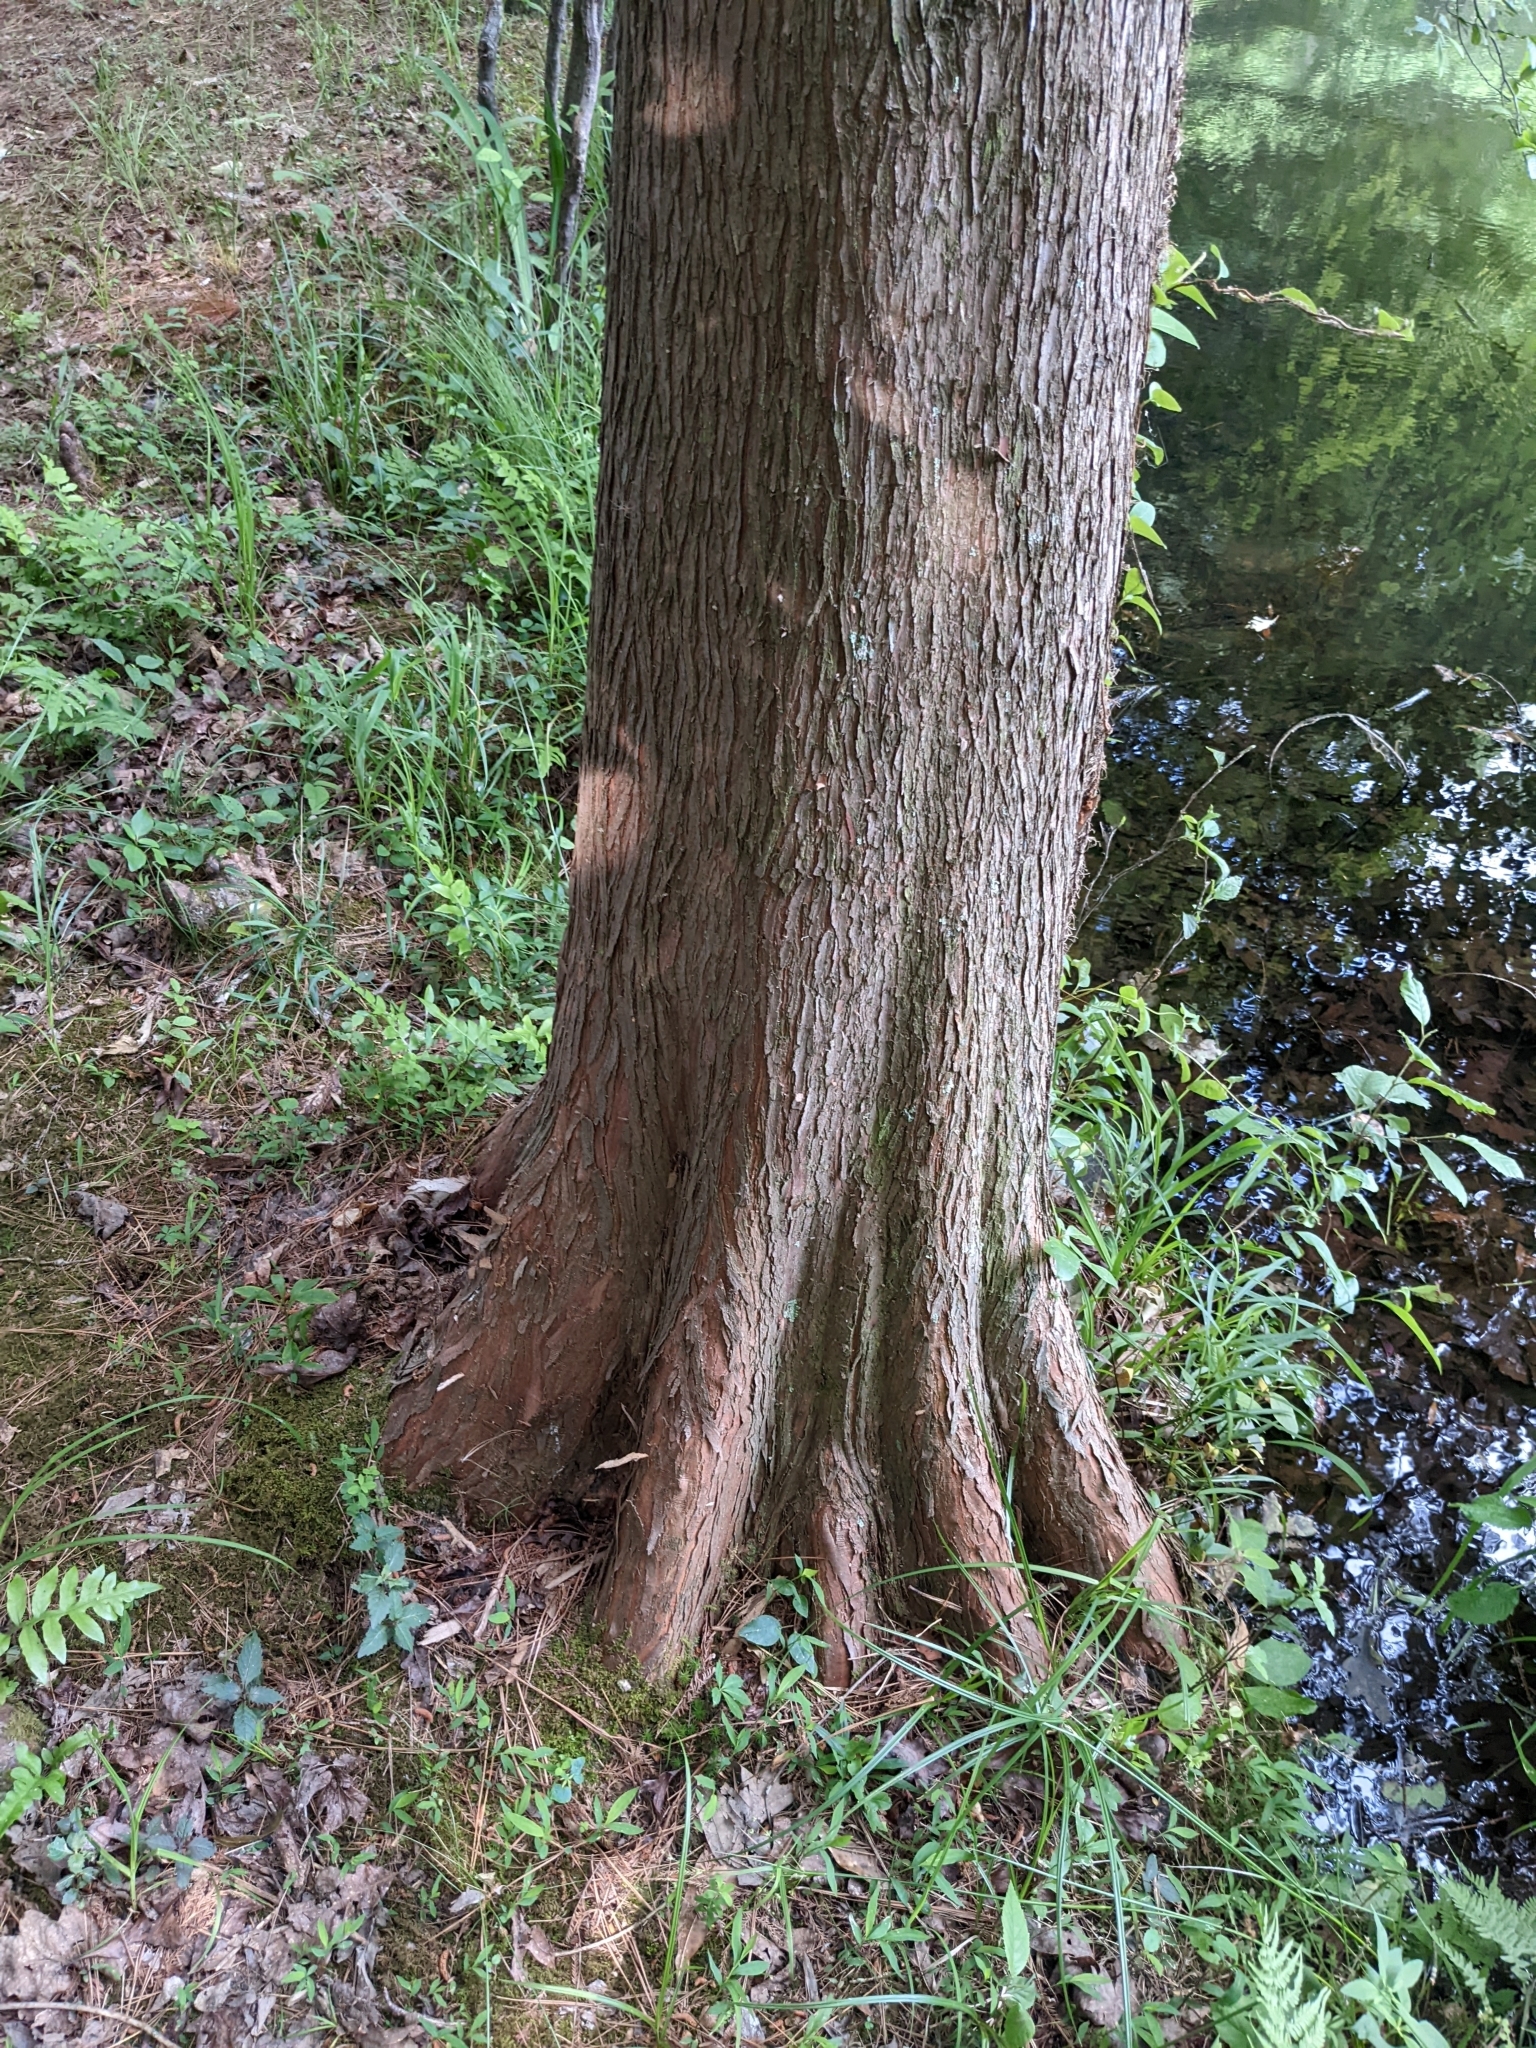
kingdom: Plantae
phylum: Tracheophyta
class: Pinopsida
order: Pinales
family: Cupressaceae
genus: Taxodium
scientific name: Taxodium distichum
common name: Bald cypress
